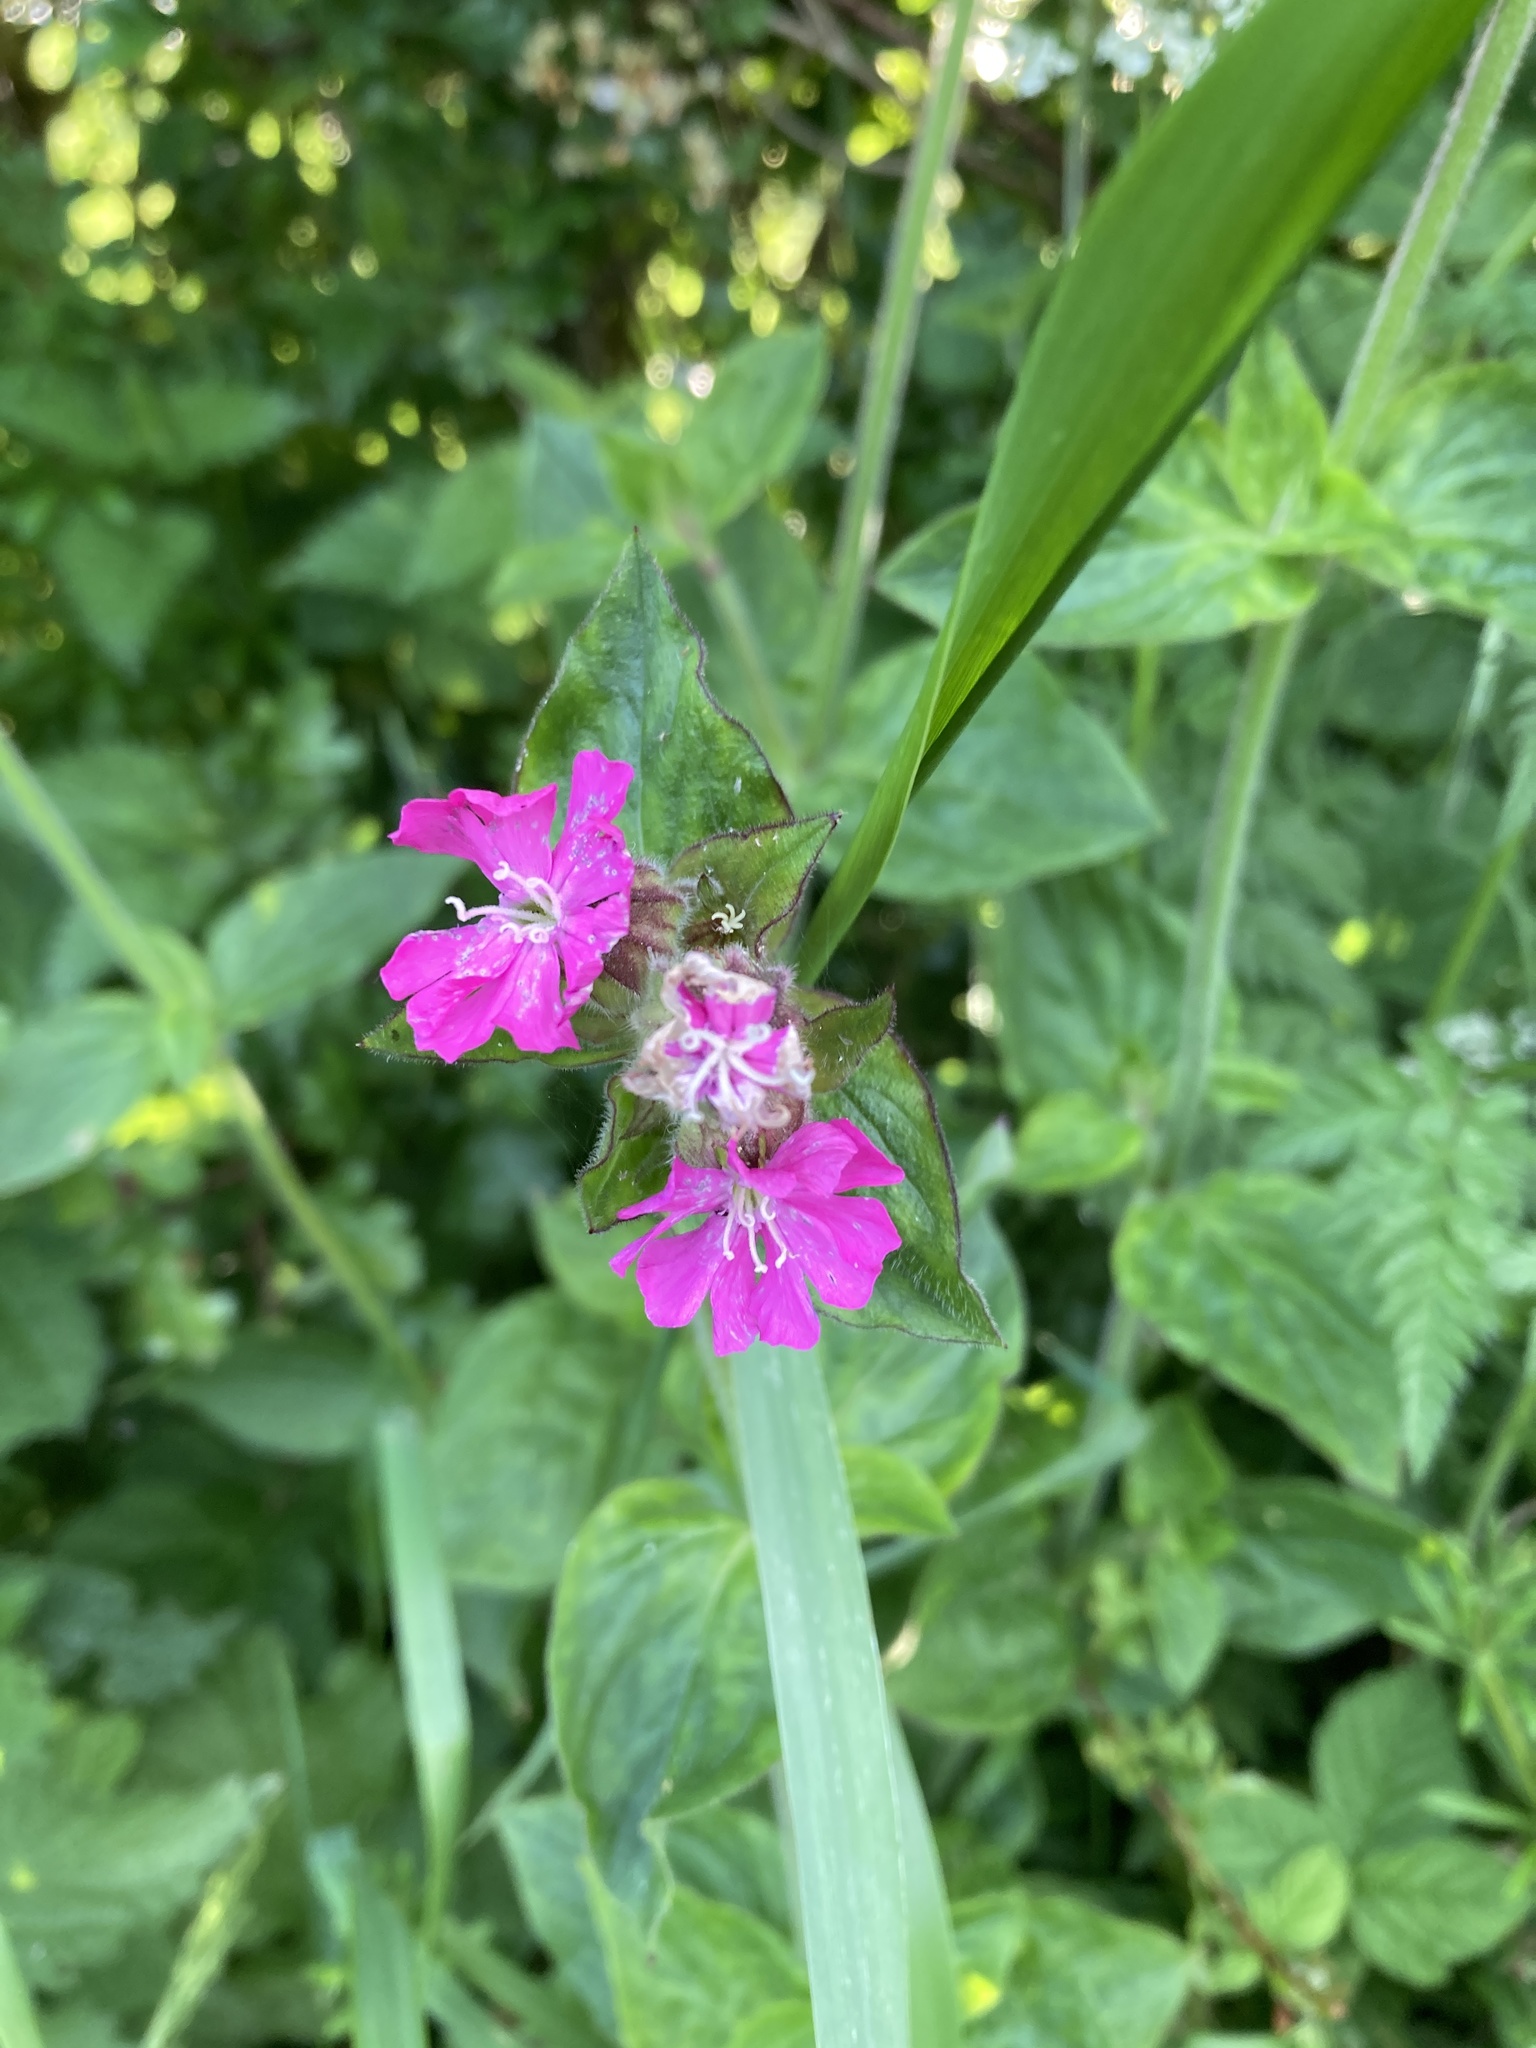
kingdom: Plantae
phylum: Tracheophyta
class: Magnoliopsida
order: Caryophyllales
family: Caryophyllaceae
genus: Silene
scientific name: Silene dioica
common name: Red campion
